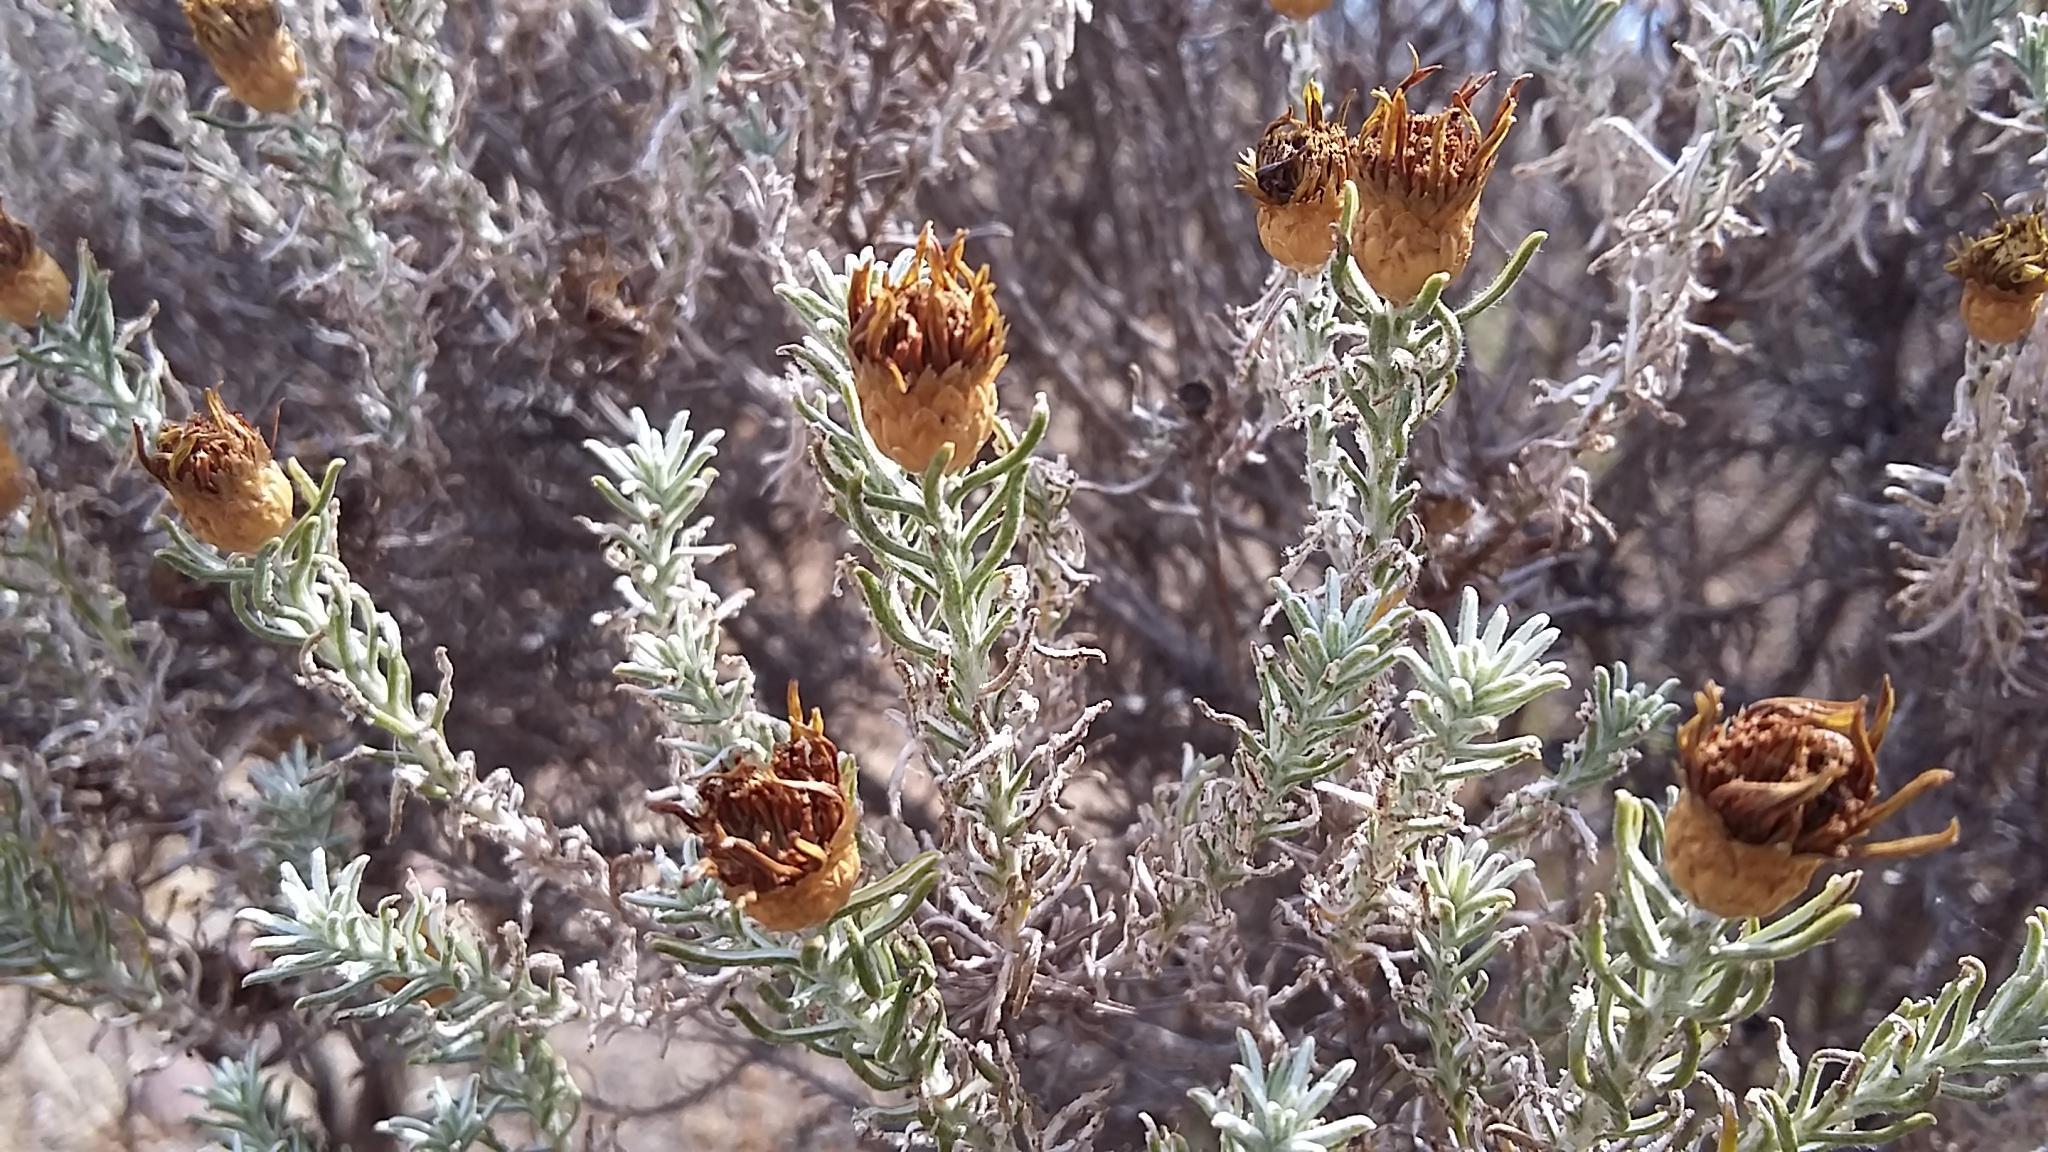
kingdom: Plantae
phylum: Tracheophyta
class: Magnoliopsida
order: Asterales
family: Asteraceae
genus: Oedera
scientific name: Oedera fruticosa
